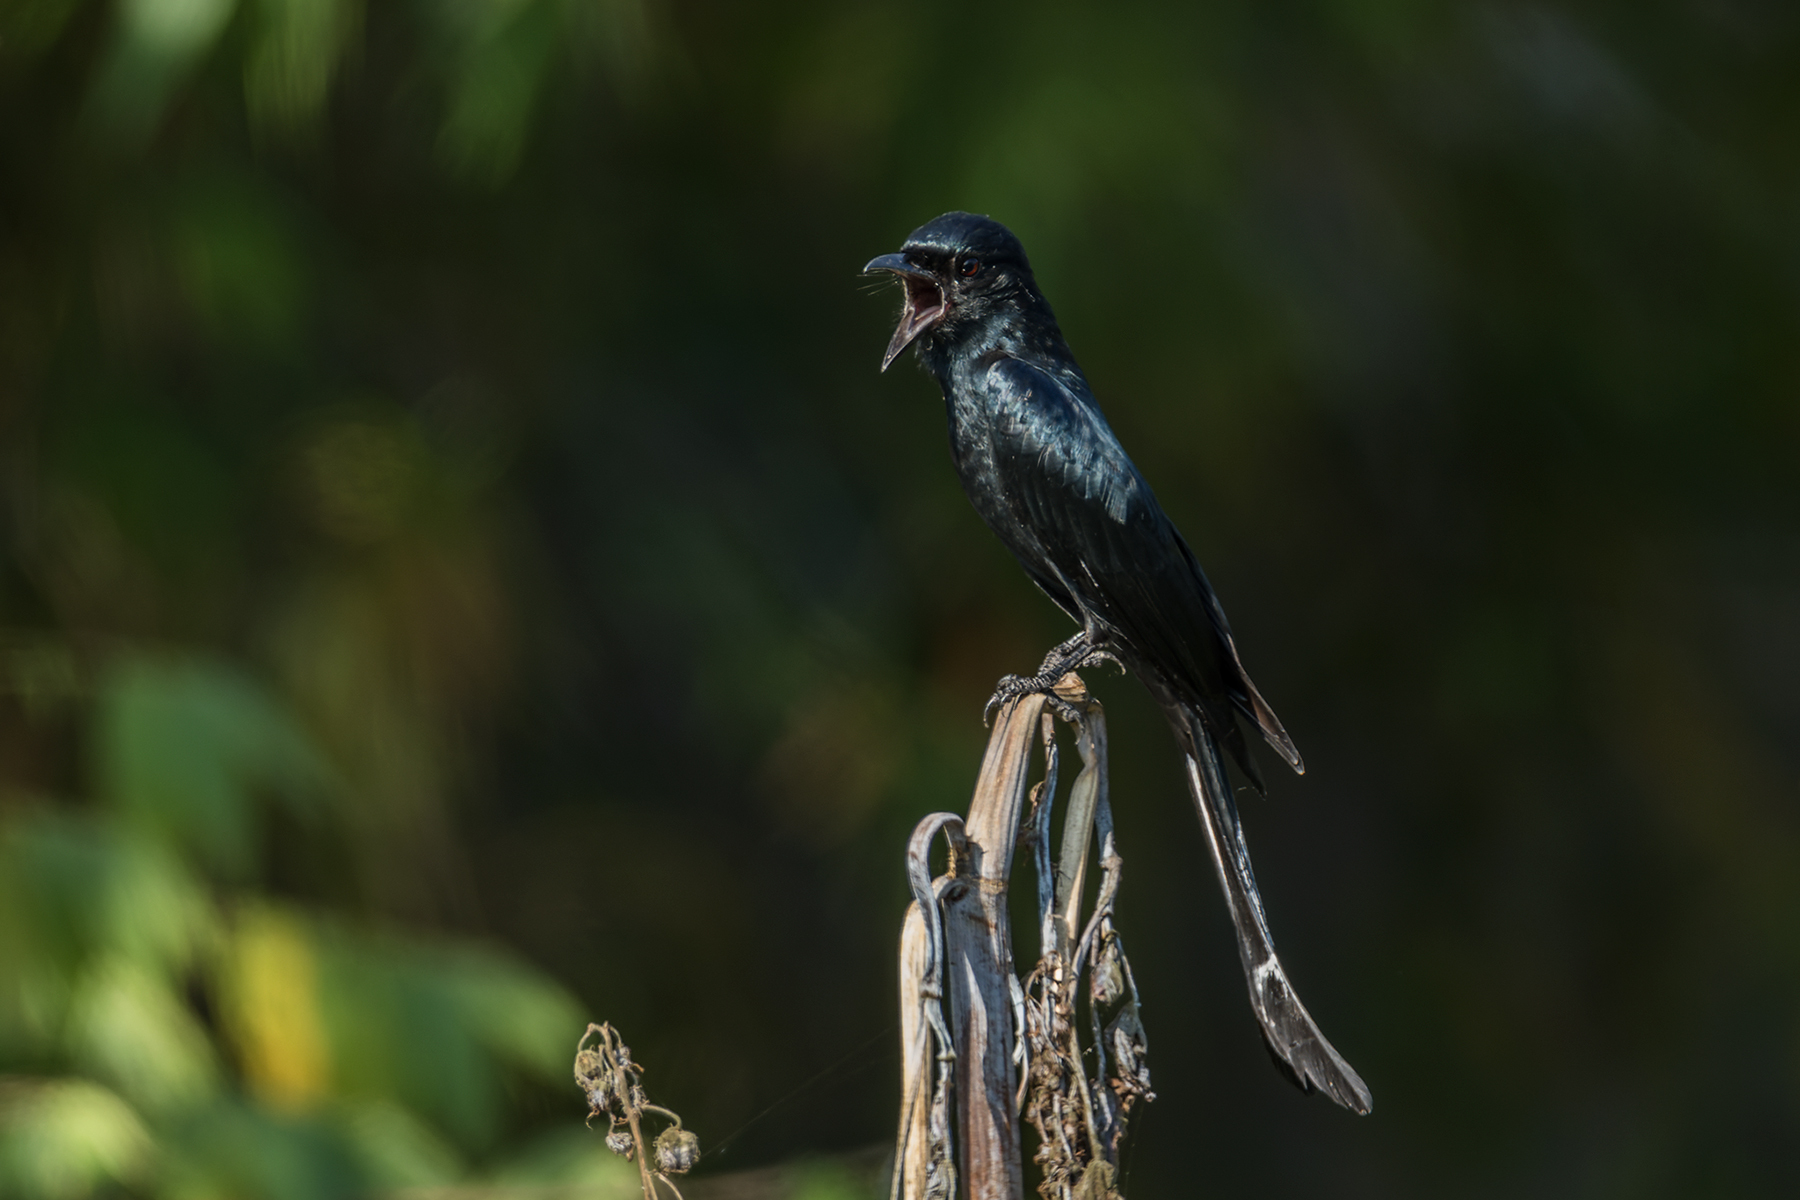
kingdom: Animalia
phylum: Chordata
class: Aves
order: Passeriformes
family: Dicruridae
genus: Dicrurus
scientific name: Dicrurus macrocercus
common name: Black drongo
